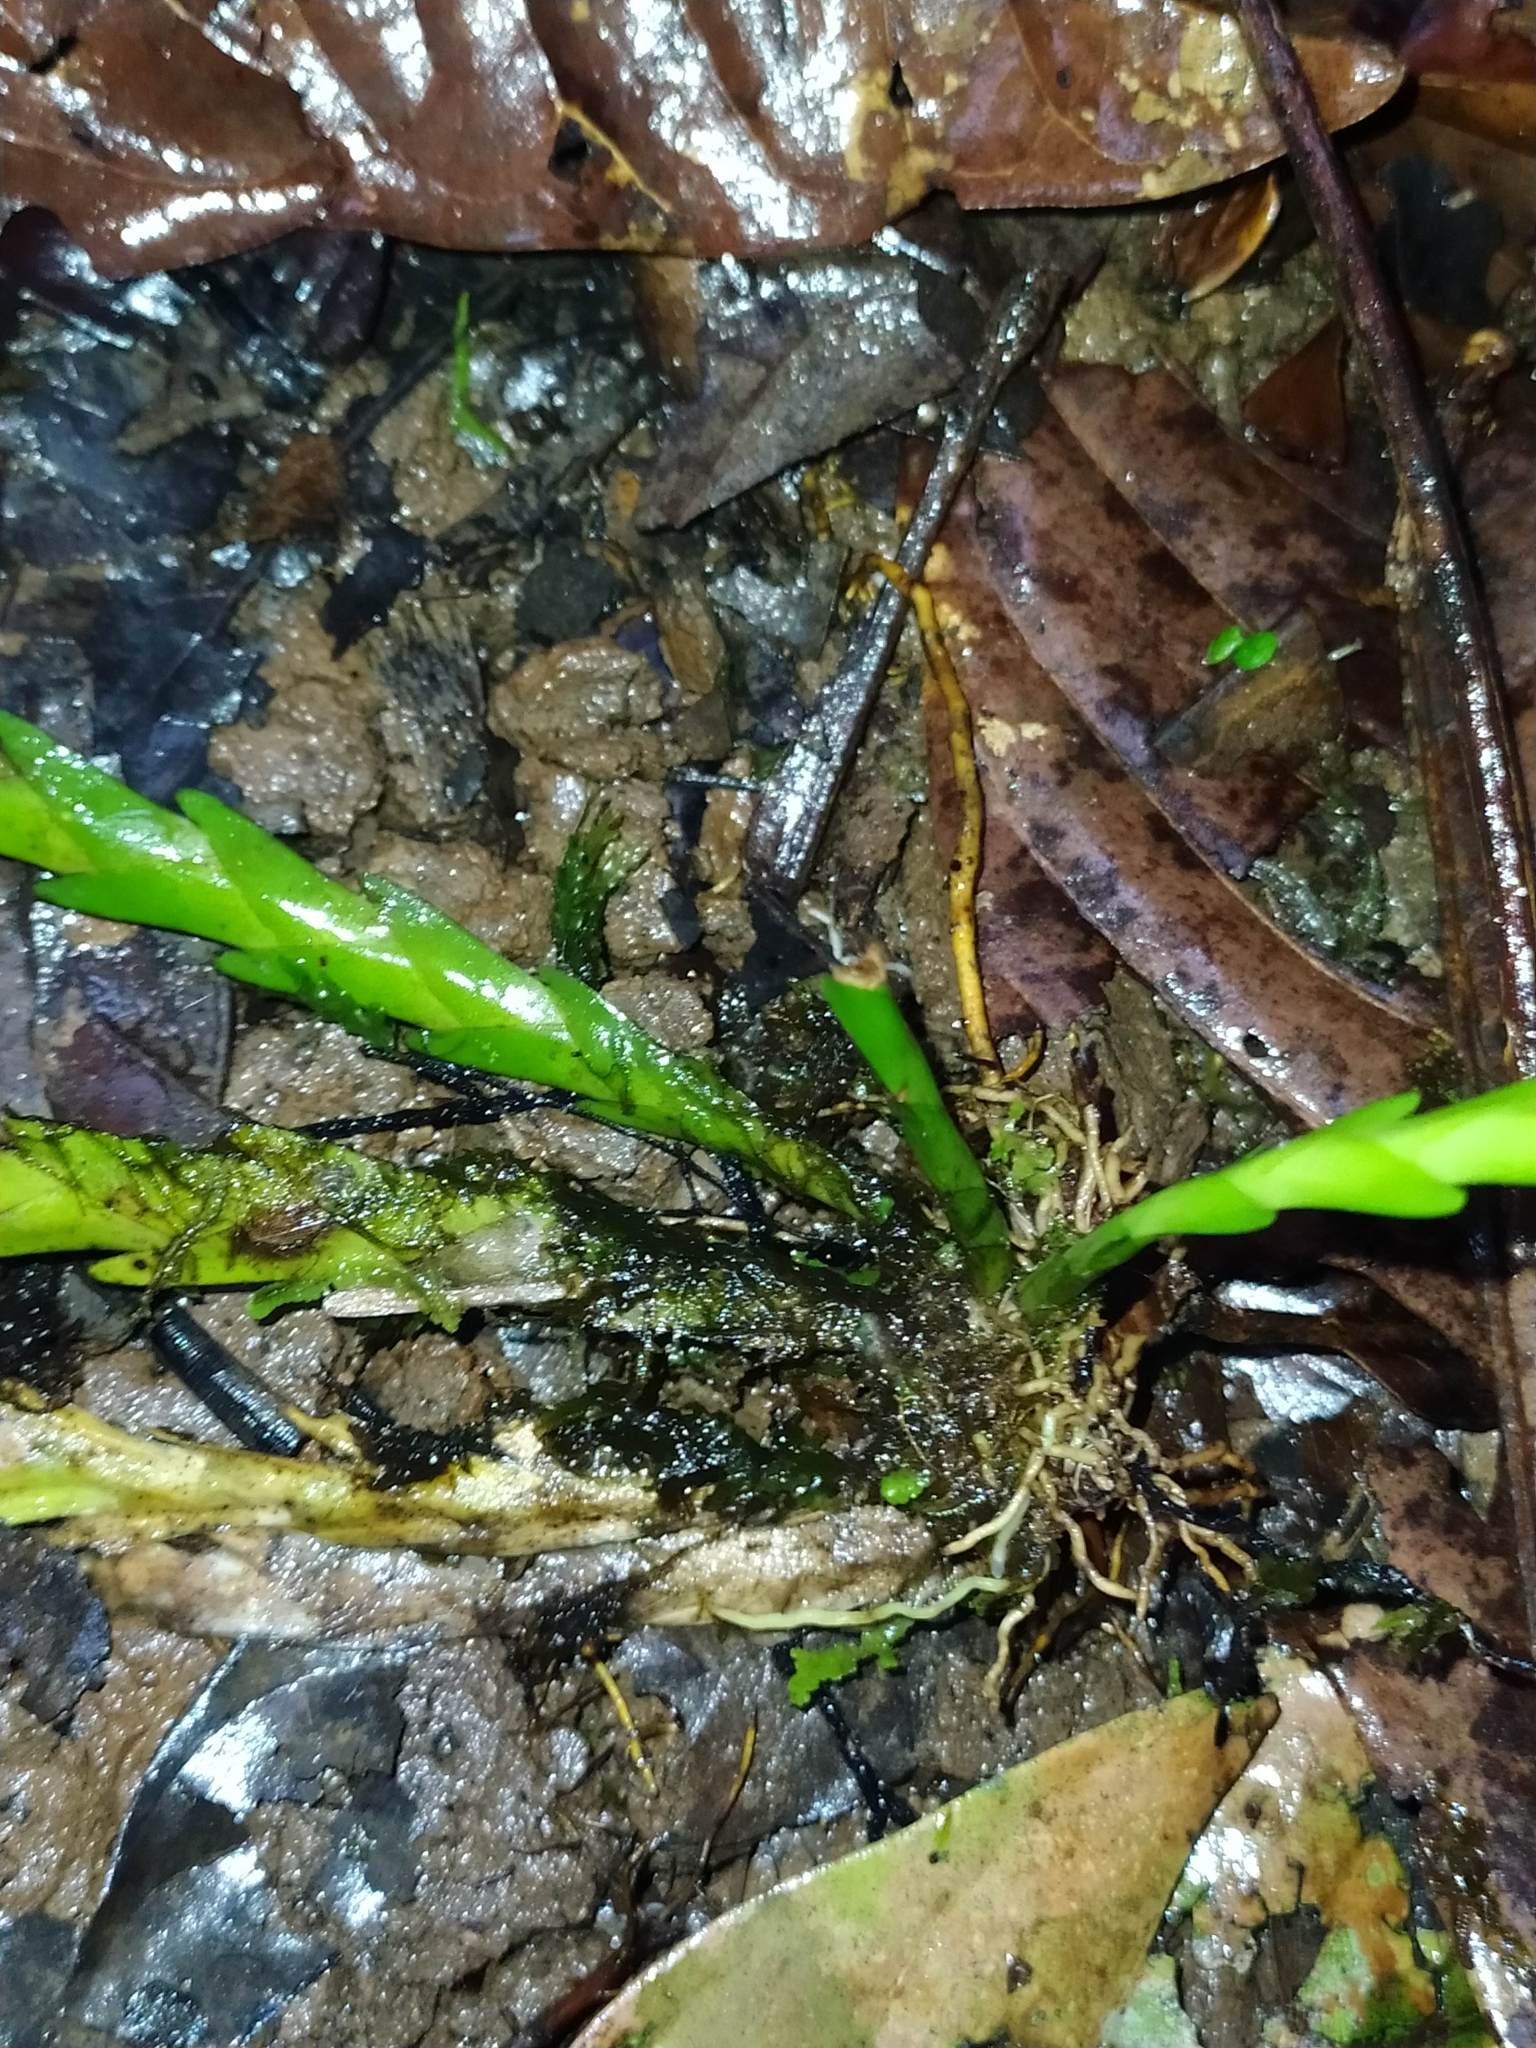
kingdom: Plantae
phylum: Tracheophyta
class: Liliopsida
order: Asparagales
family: Orchidaceae
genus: Lockhartia
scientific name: Lockhartia imbricata
